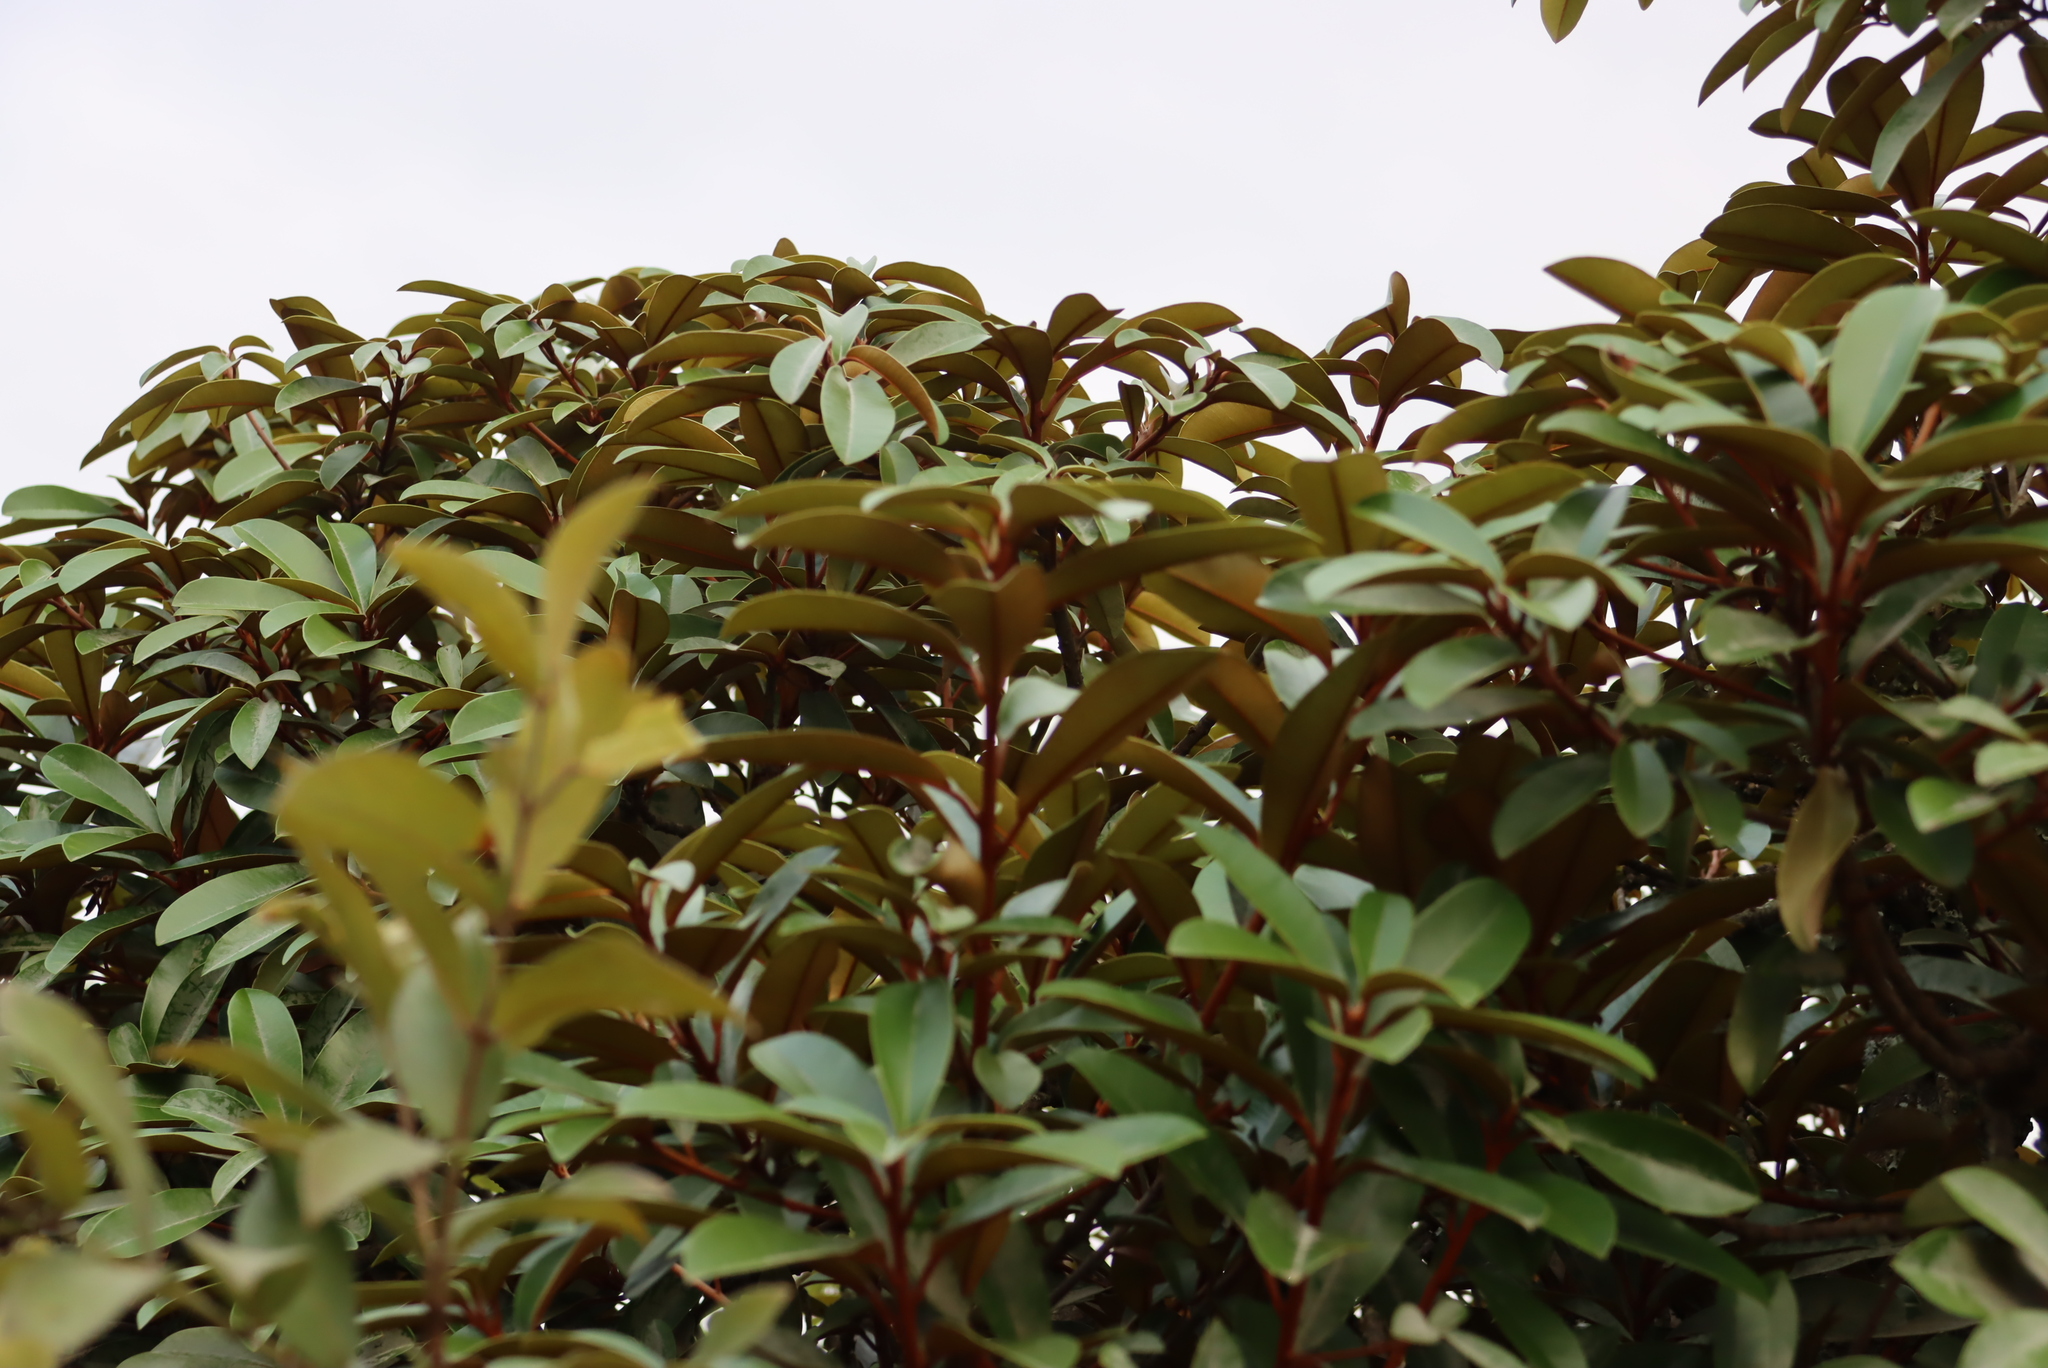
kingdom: Plantae
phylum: Tracheophyta
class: Magnoliopsida
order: Ericales
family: Sapotaceae
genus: Englerophytum
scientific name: Englerophytum magalismontanum
